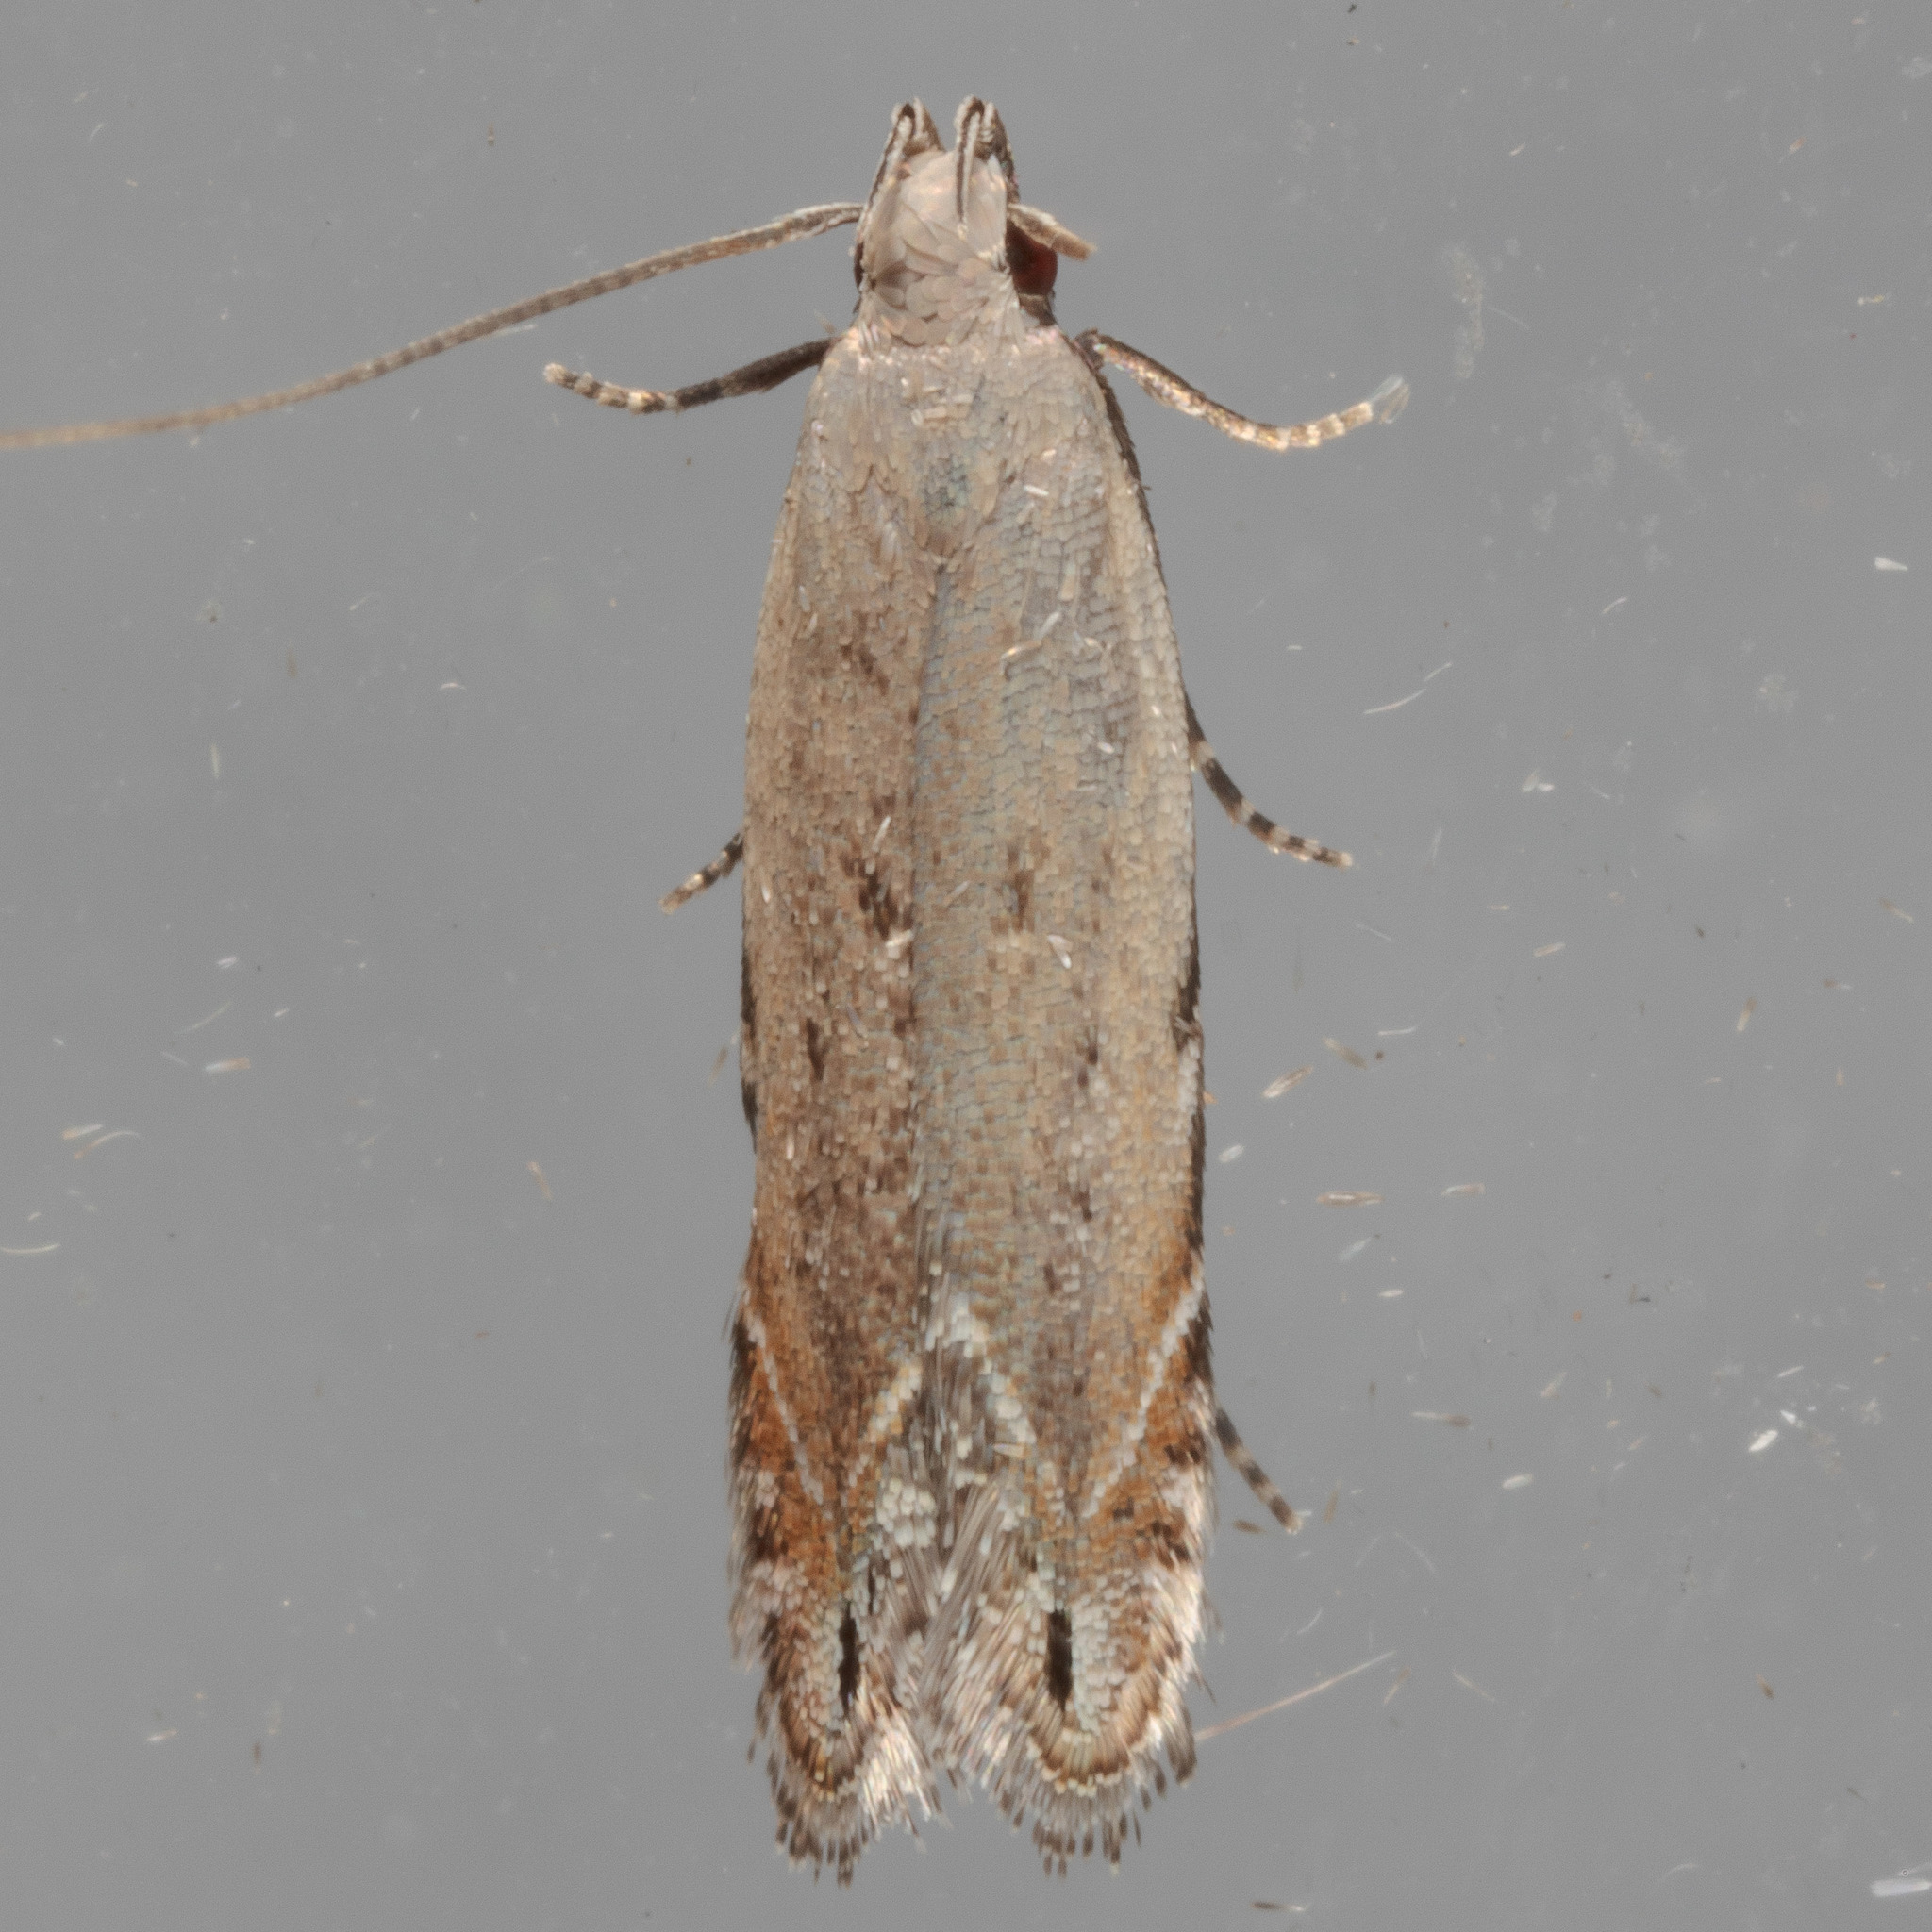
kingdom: Animalia
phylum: Arthropoda
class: Insecta
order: Lepidoptera
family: Gelechiidae
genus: Battaristis
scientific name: Battaristis concinnusella
